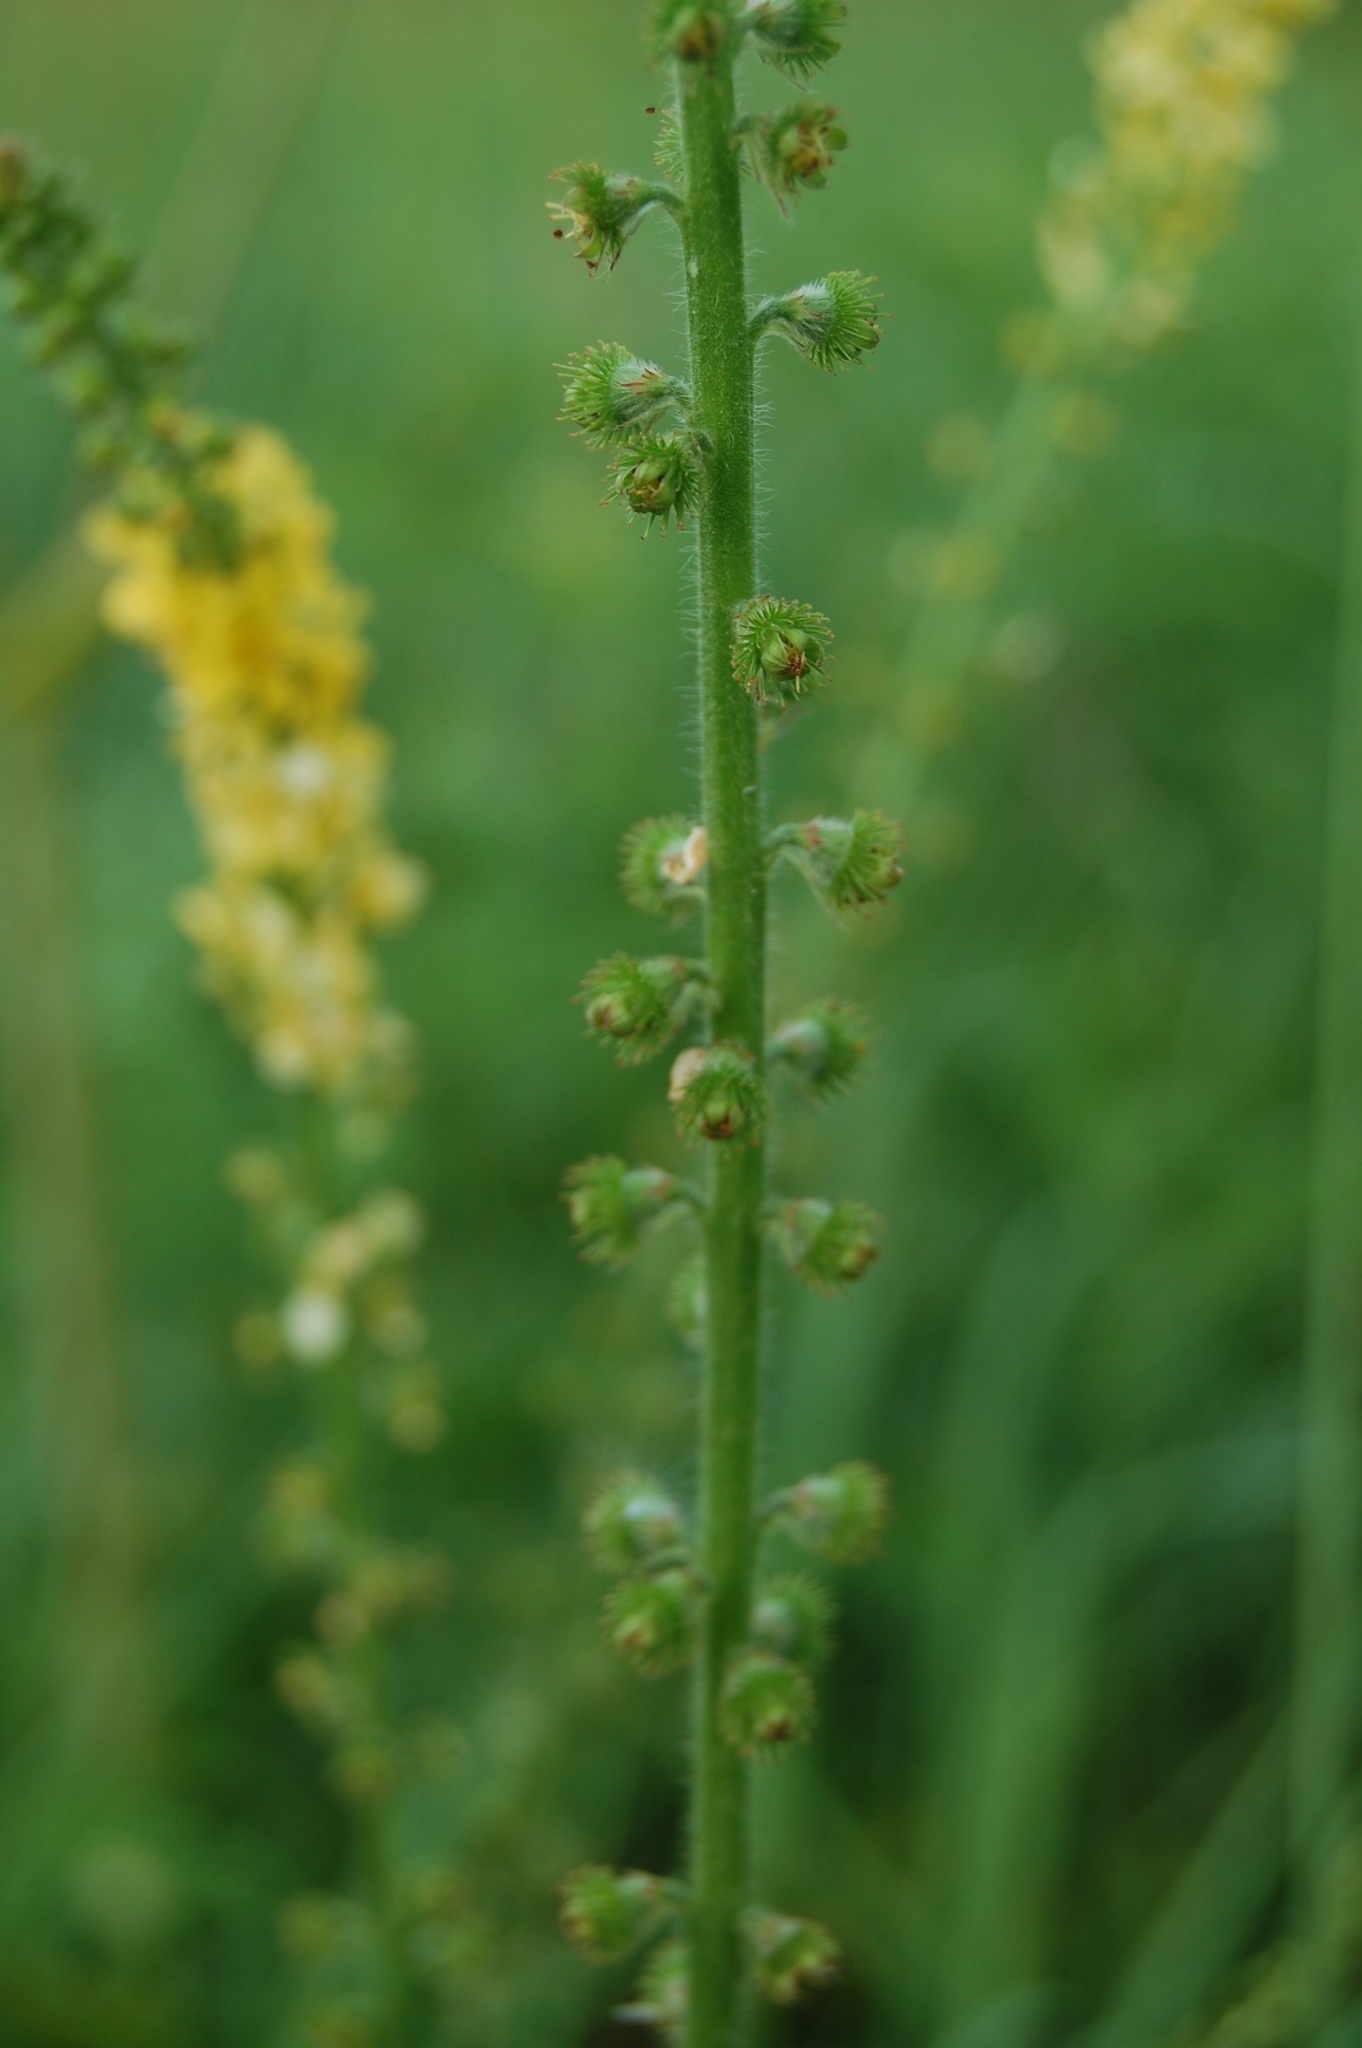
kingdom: Plantae
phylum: Tracheophyta
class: Magnoliopsida
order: Rosales
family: Rosaceae
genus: Agrimonia
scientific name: Agrimonia eupatoria
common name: Agrimony
